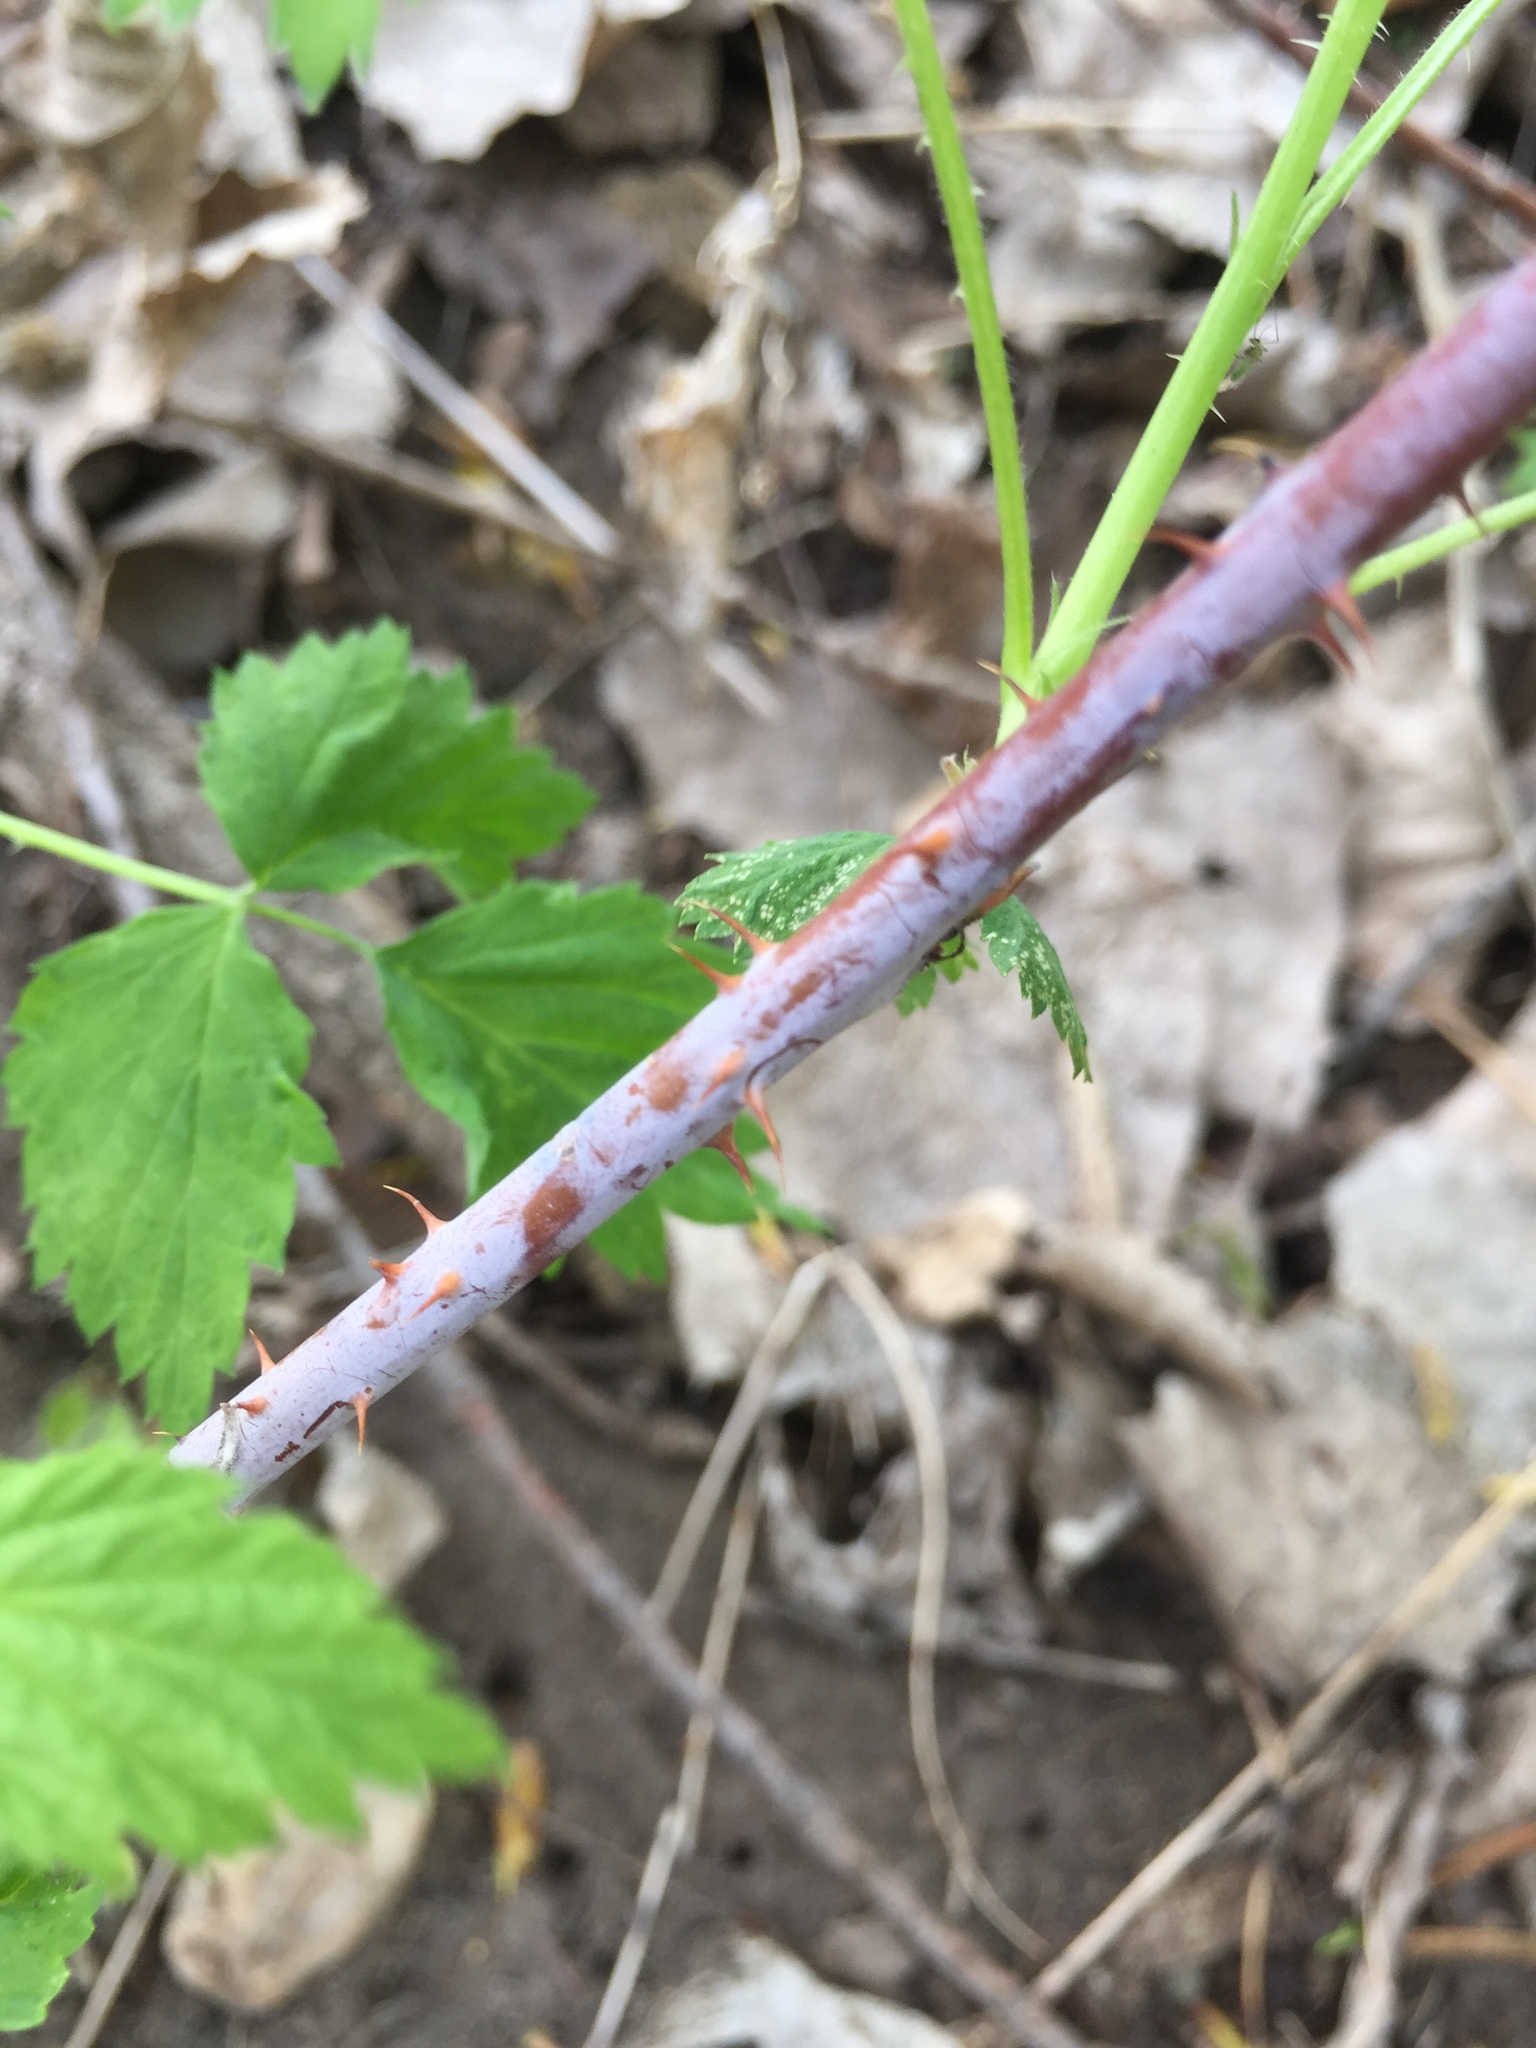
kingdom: Plantae
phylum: Tracheophyta
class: Magnoliopsida
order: Rosales
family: Rosaceae
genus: Rubus
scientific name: Rubus occidentalis
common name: Black raspberry
